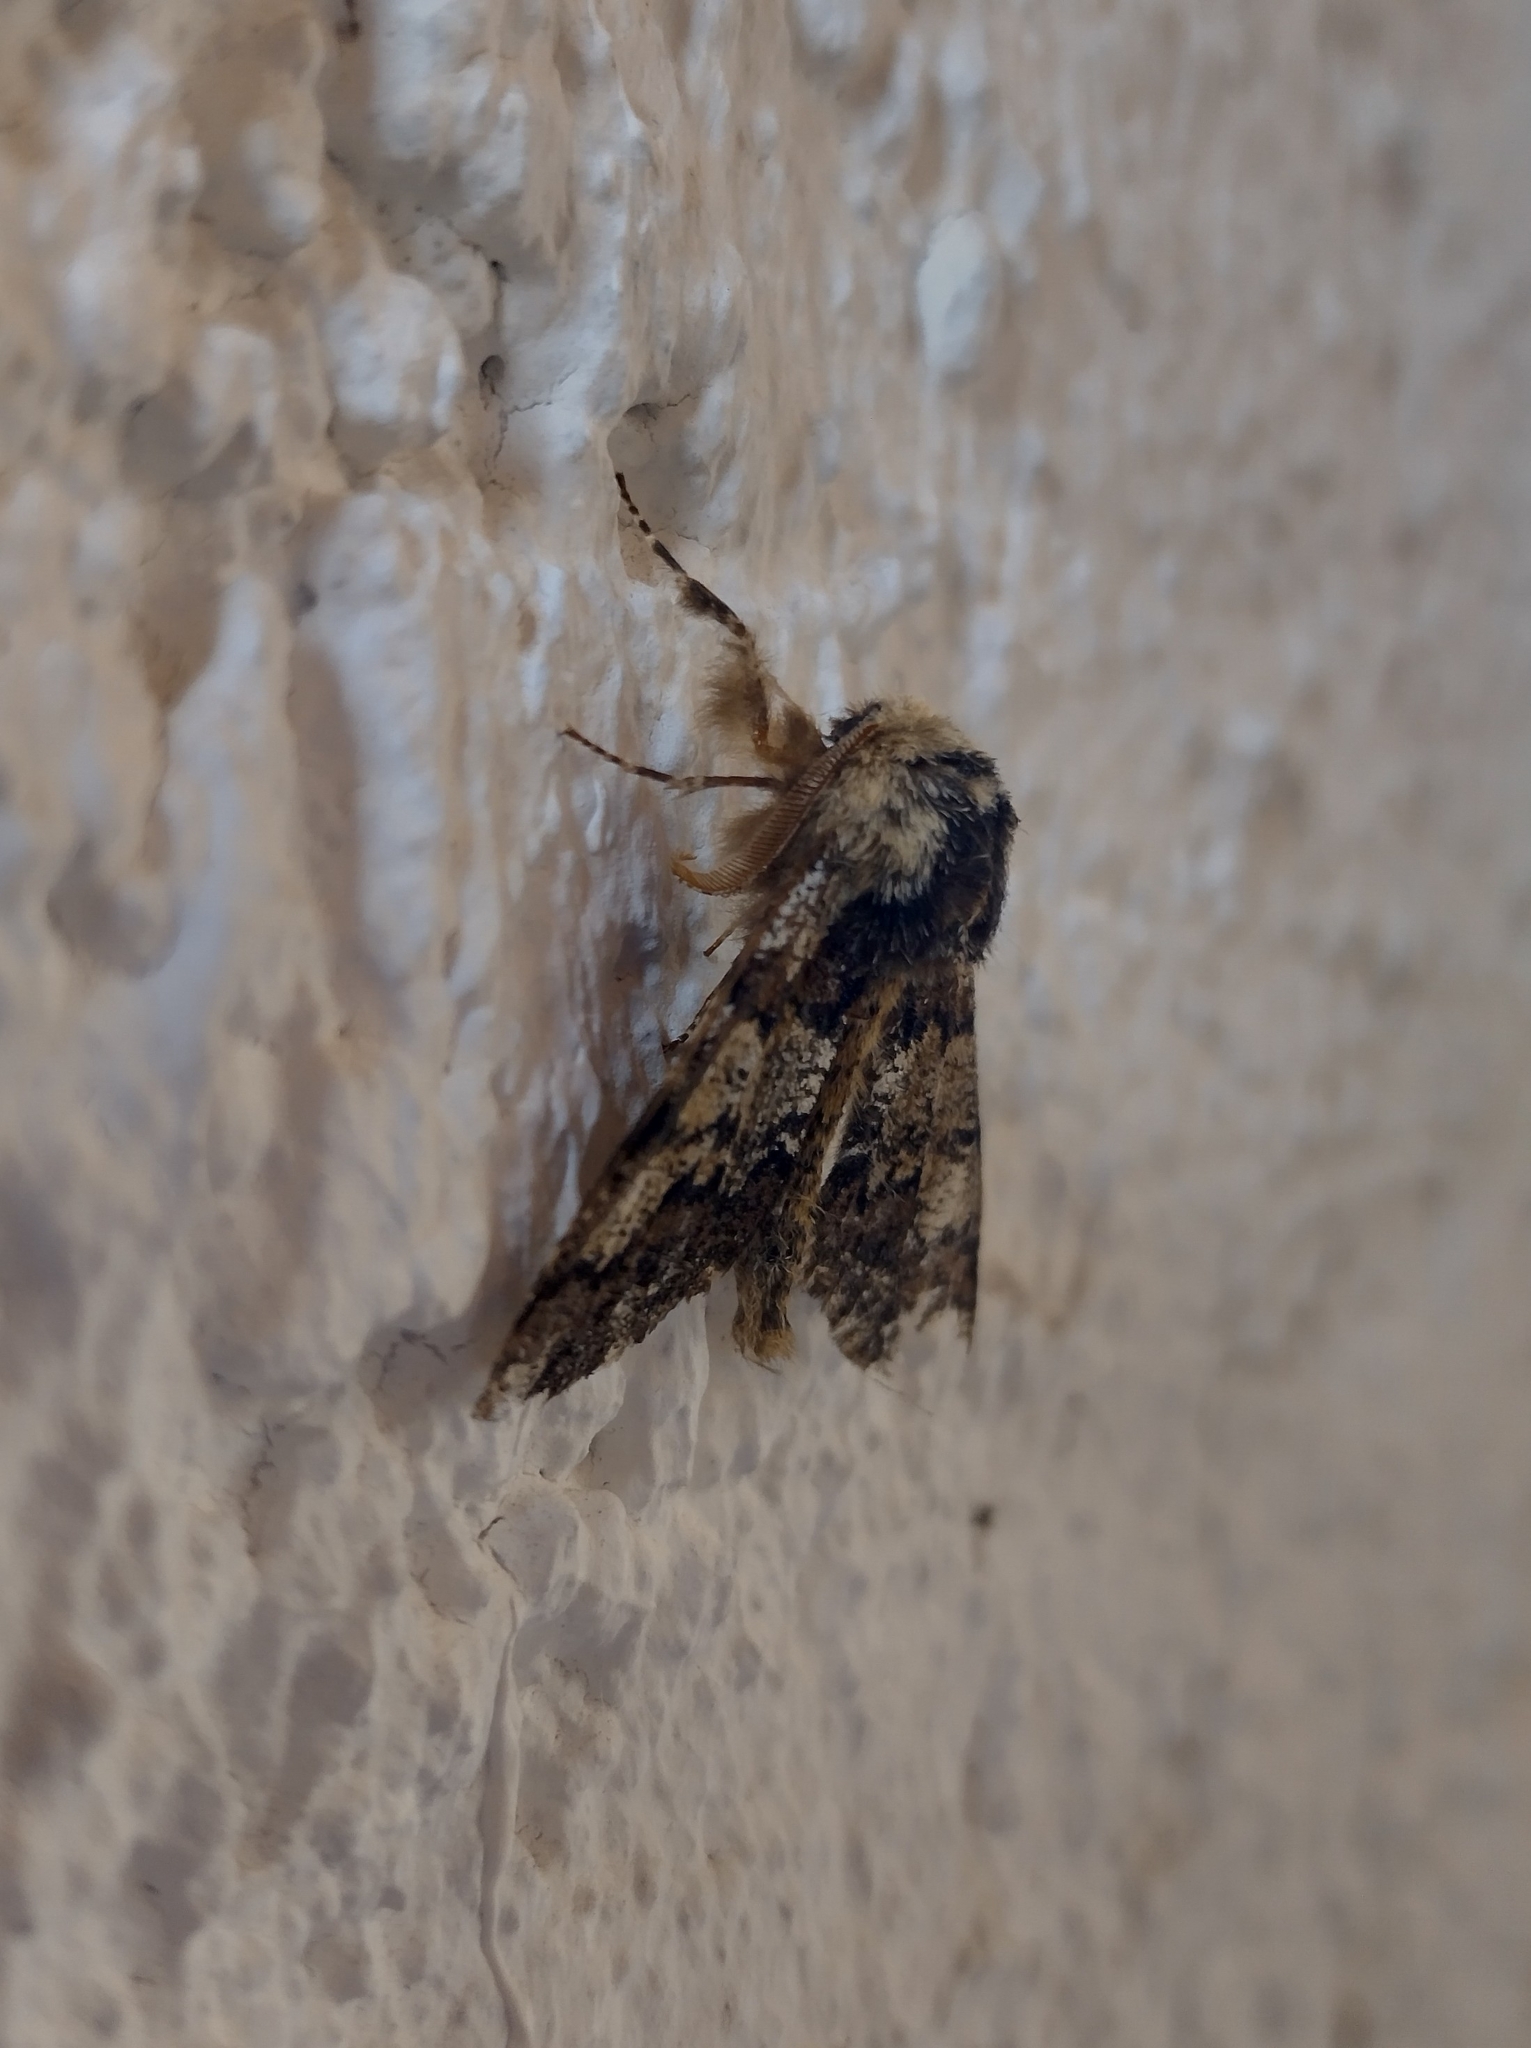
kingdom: Animalia
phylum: Arthropoda
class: Insecta
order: Lepidoptera
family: Geometridae
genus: Biston
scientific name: Biston strataria
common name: Oak beauty
